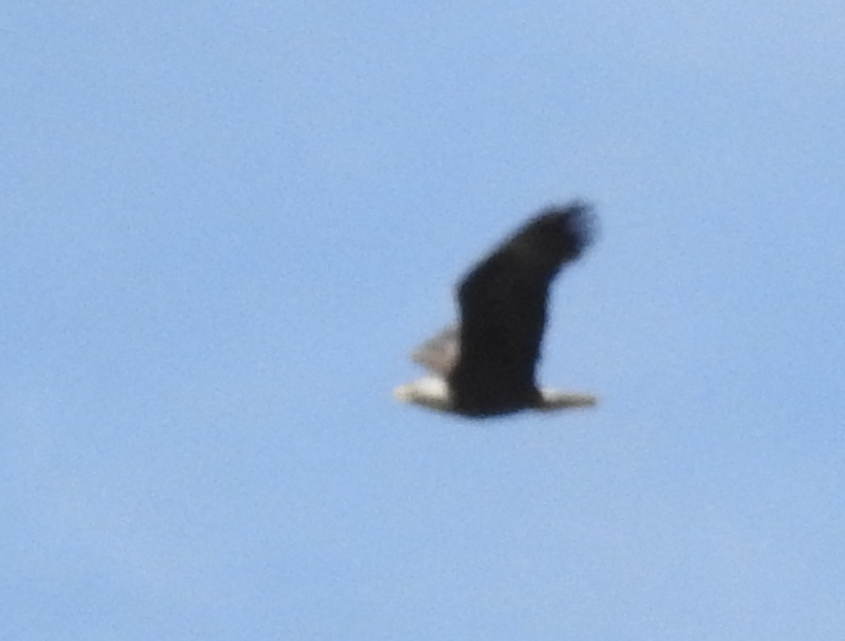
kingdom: Animalia
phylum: Chordata
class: Aves
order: Accipitriformes
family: Accipitridae
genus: Haliaeetus
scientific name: Haliaeetus leucocephalus
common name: Bald eagle
